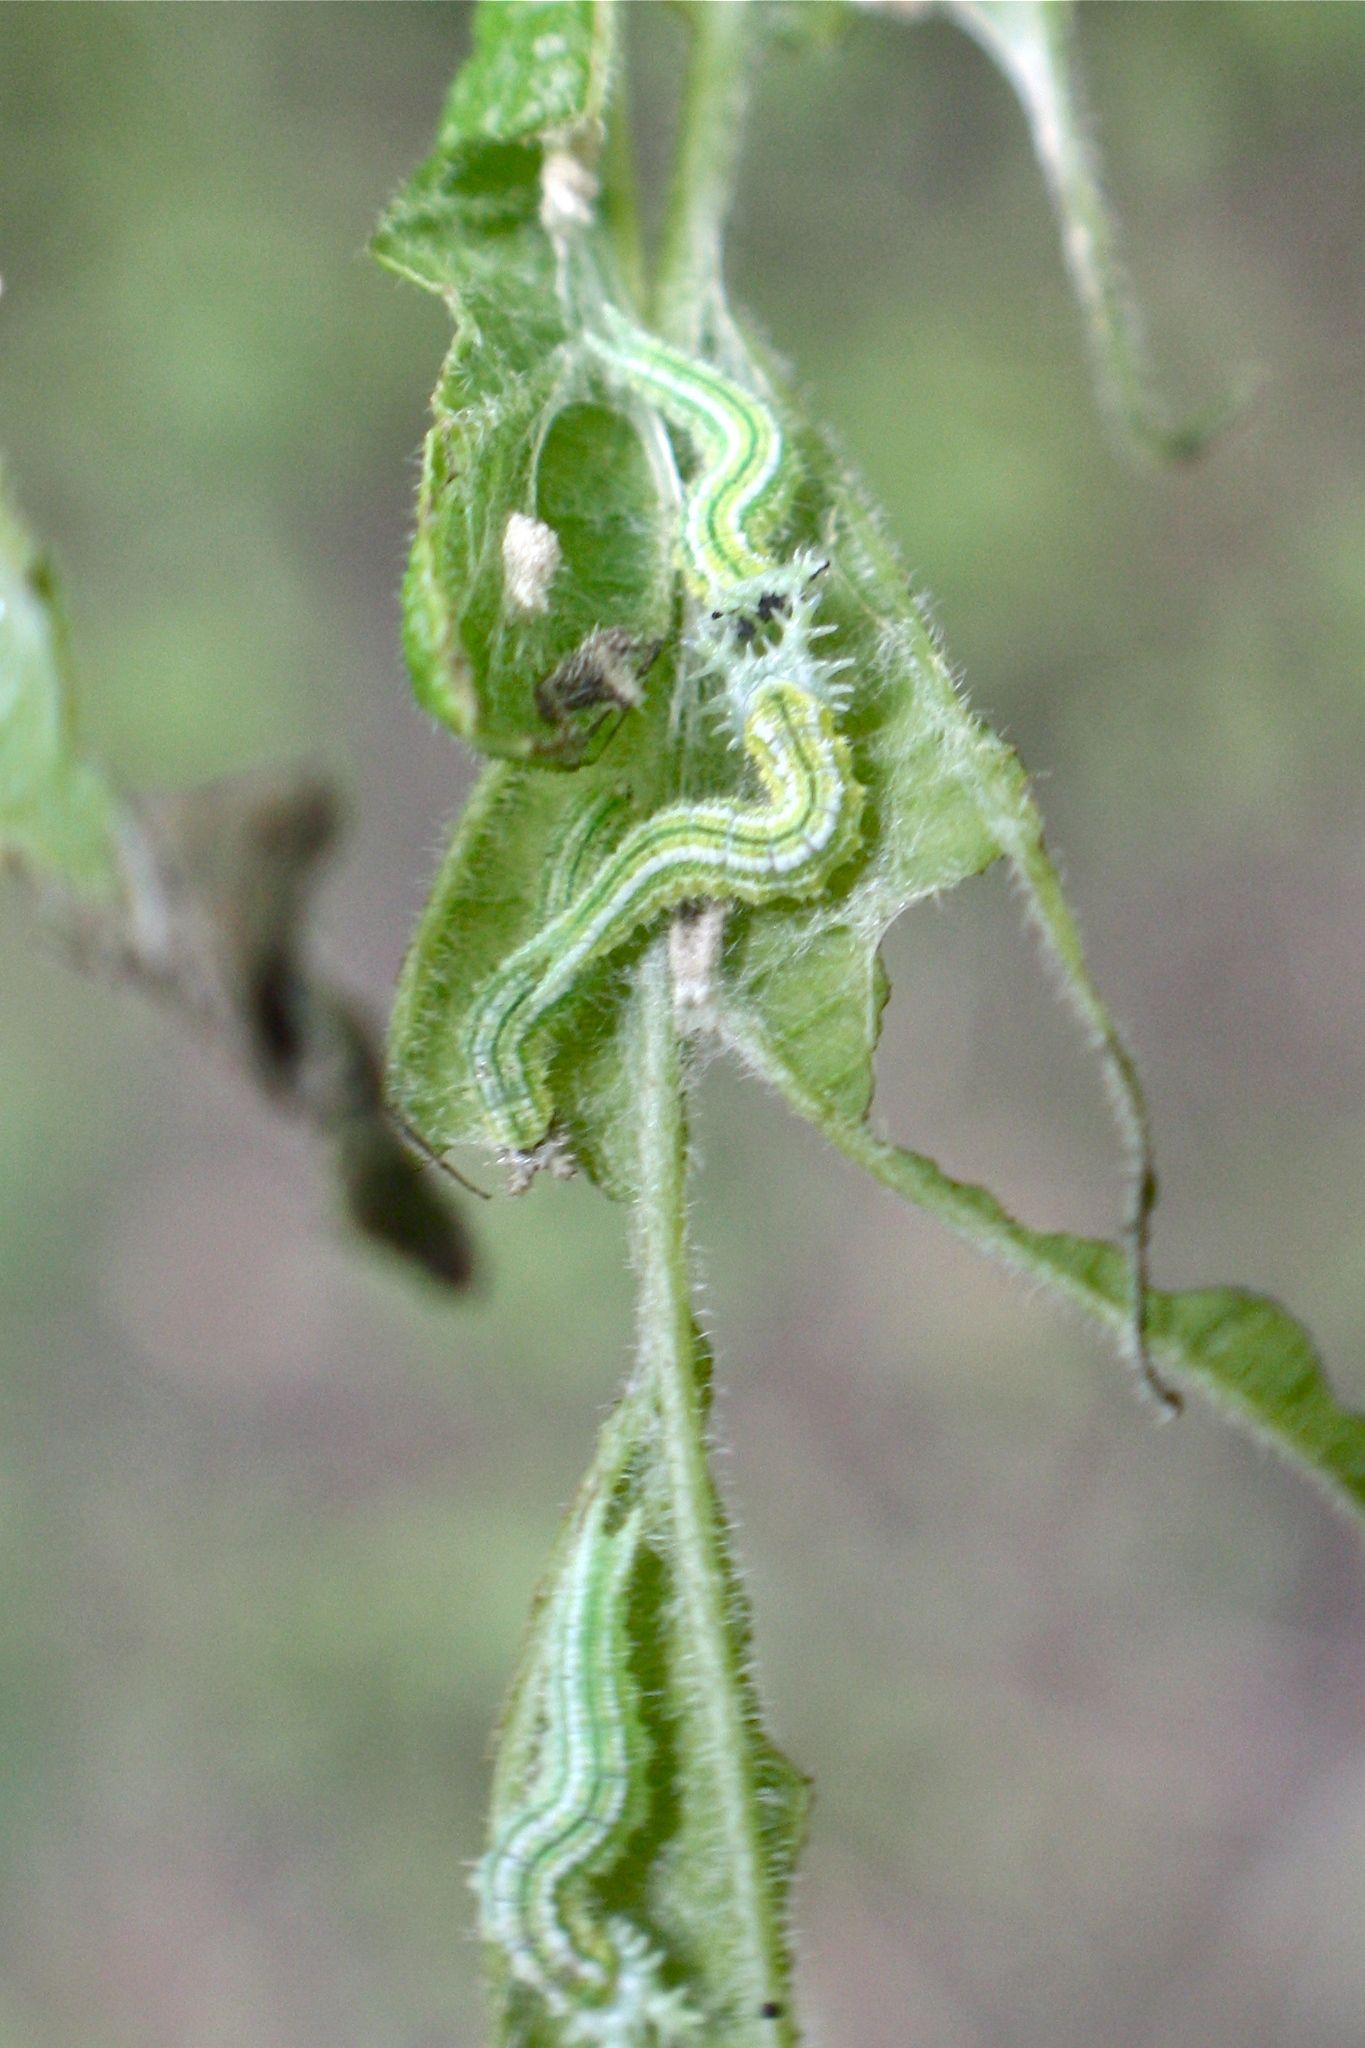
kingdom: Animalia
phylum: Arthropoda
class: Insecta
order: Lepidoptera
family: Nymphalidae
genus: Asterocampa
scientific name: Asterocampa clyton
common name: Tawny emperor
